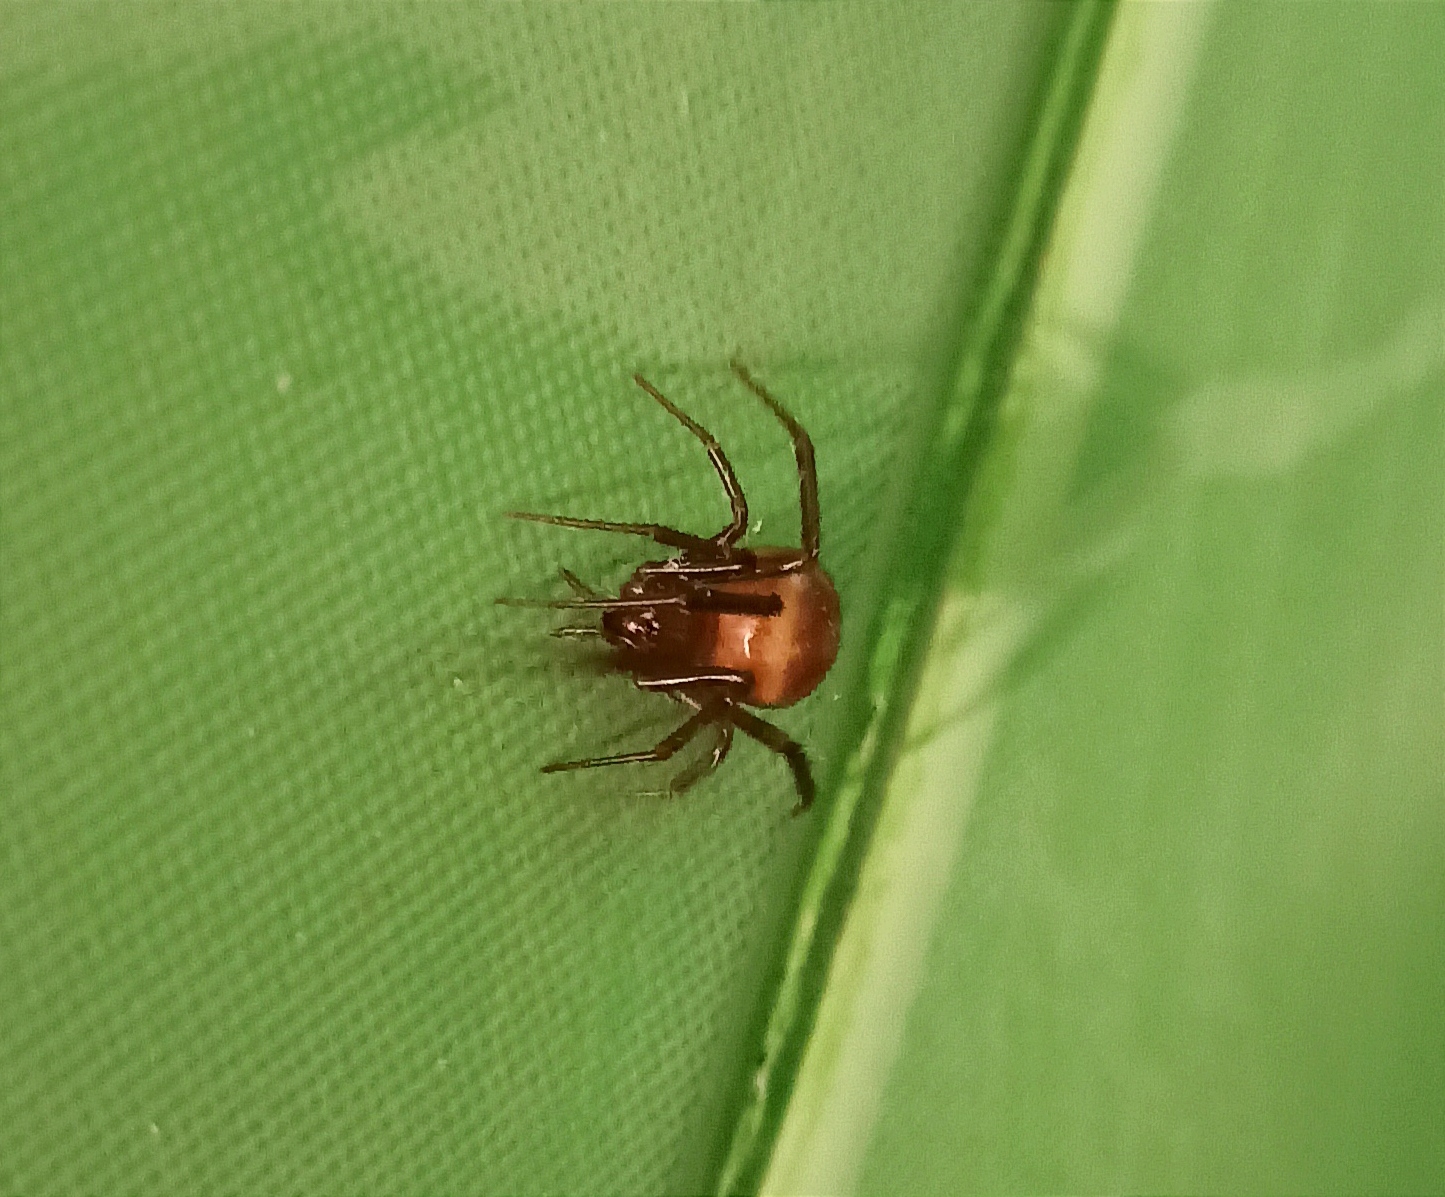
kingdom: Animalia
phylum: Arthropoda
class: Arachnida
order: Araneae
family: Theridiidae
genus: Steatoda
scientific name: Steatoda grossa
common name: False black widow
